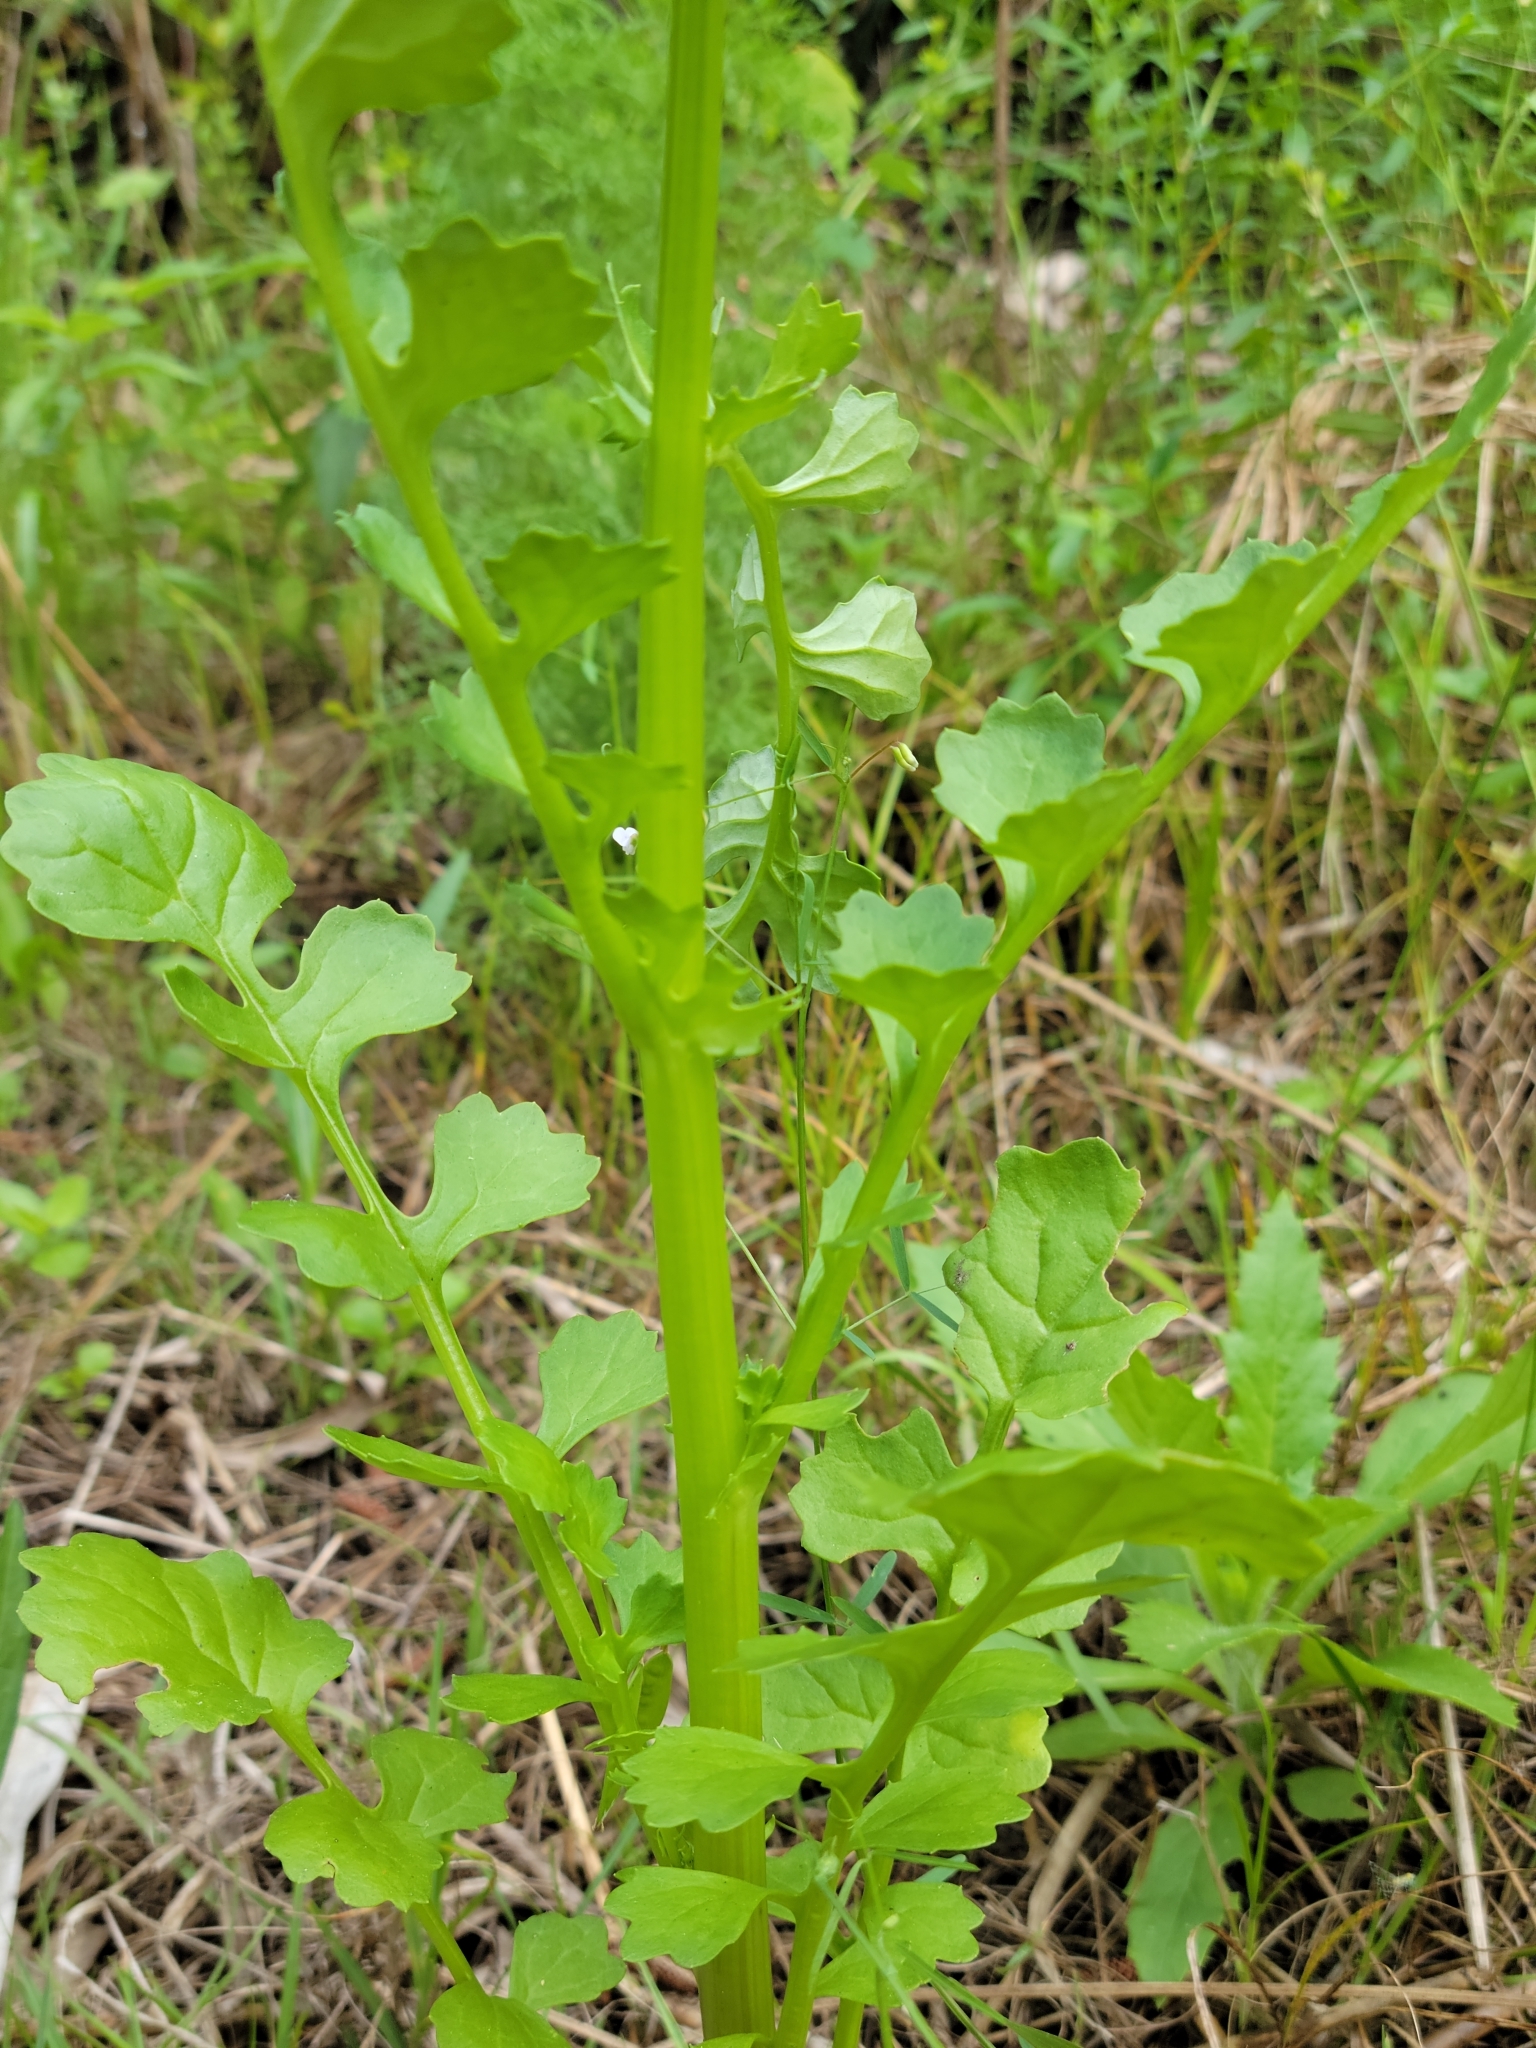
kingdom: Plantae
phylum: Tracheophyta
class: Magnoliopsida
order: Asterales
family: Asteraceae
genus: Packera
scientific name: Packera glabella
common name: Butterweed
